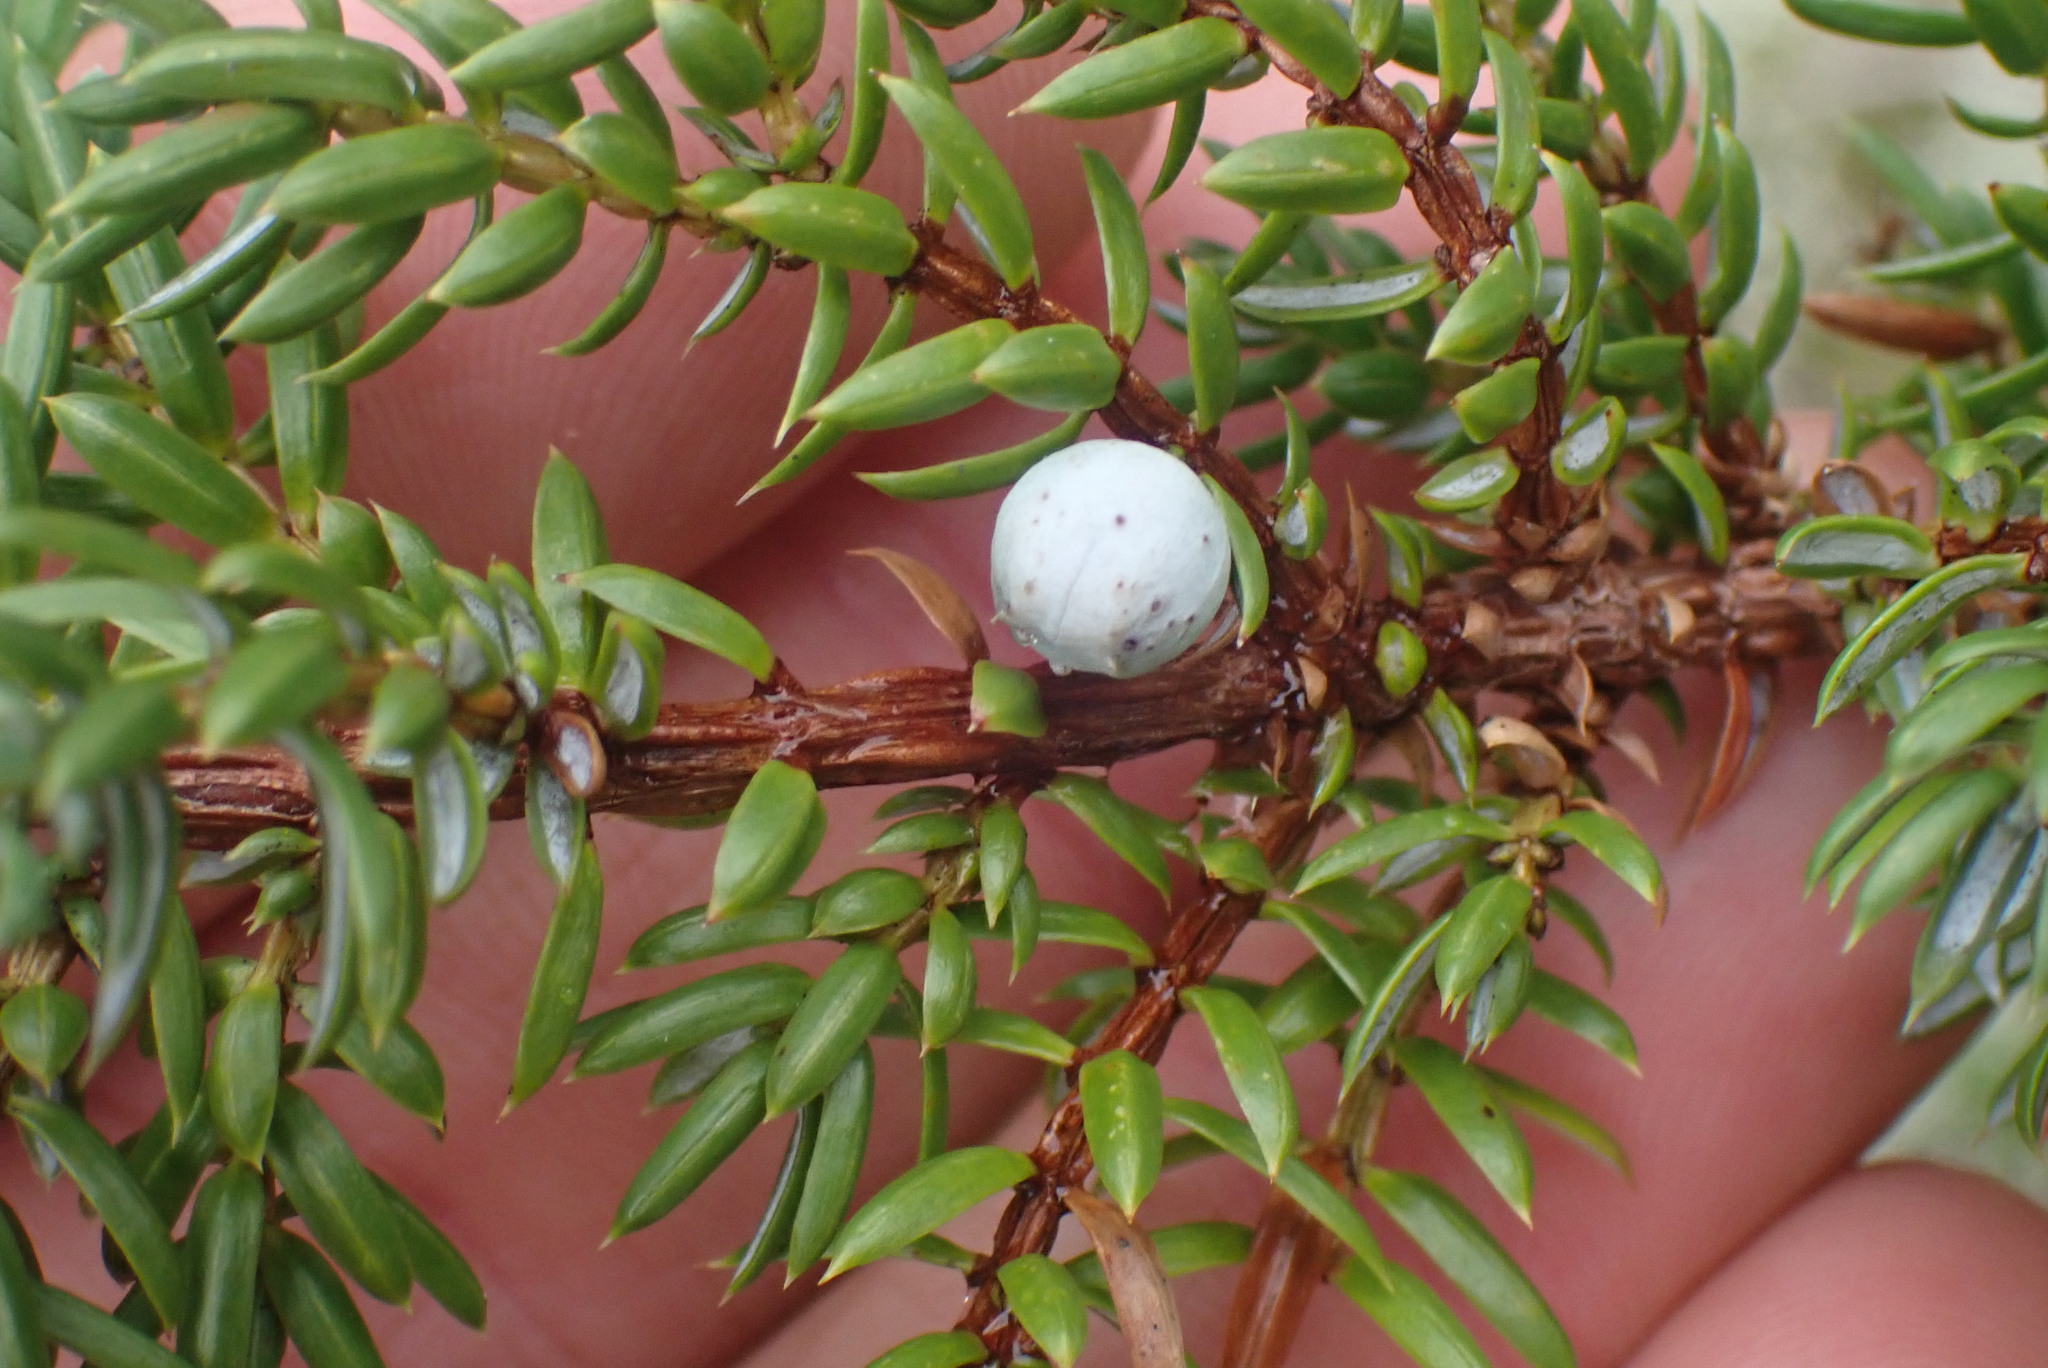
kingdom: Plantae
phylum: Tracheophyta
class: Pinopsida
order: Pinales
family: Cupressaceae
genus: Juniperus
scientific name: Juniperus communis
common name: Common juniper
